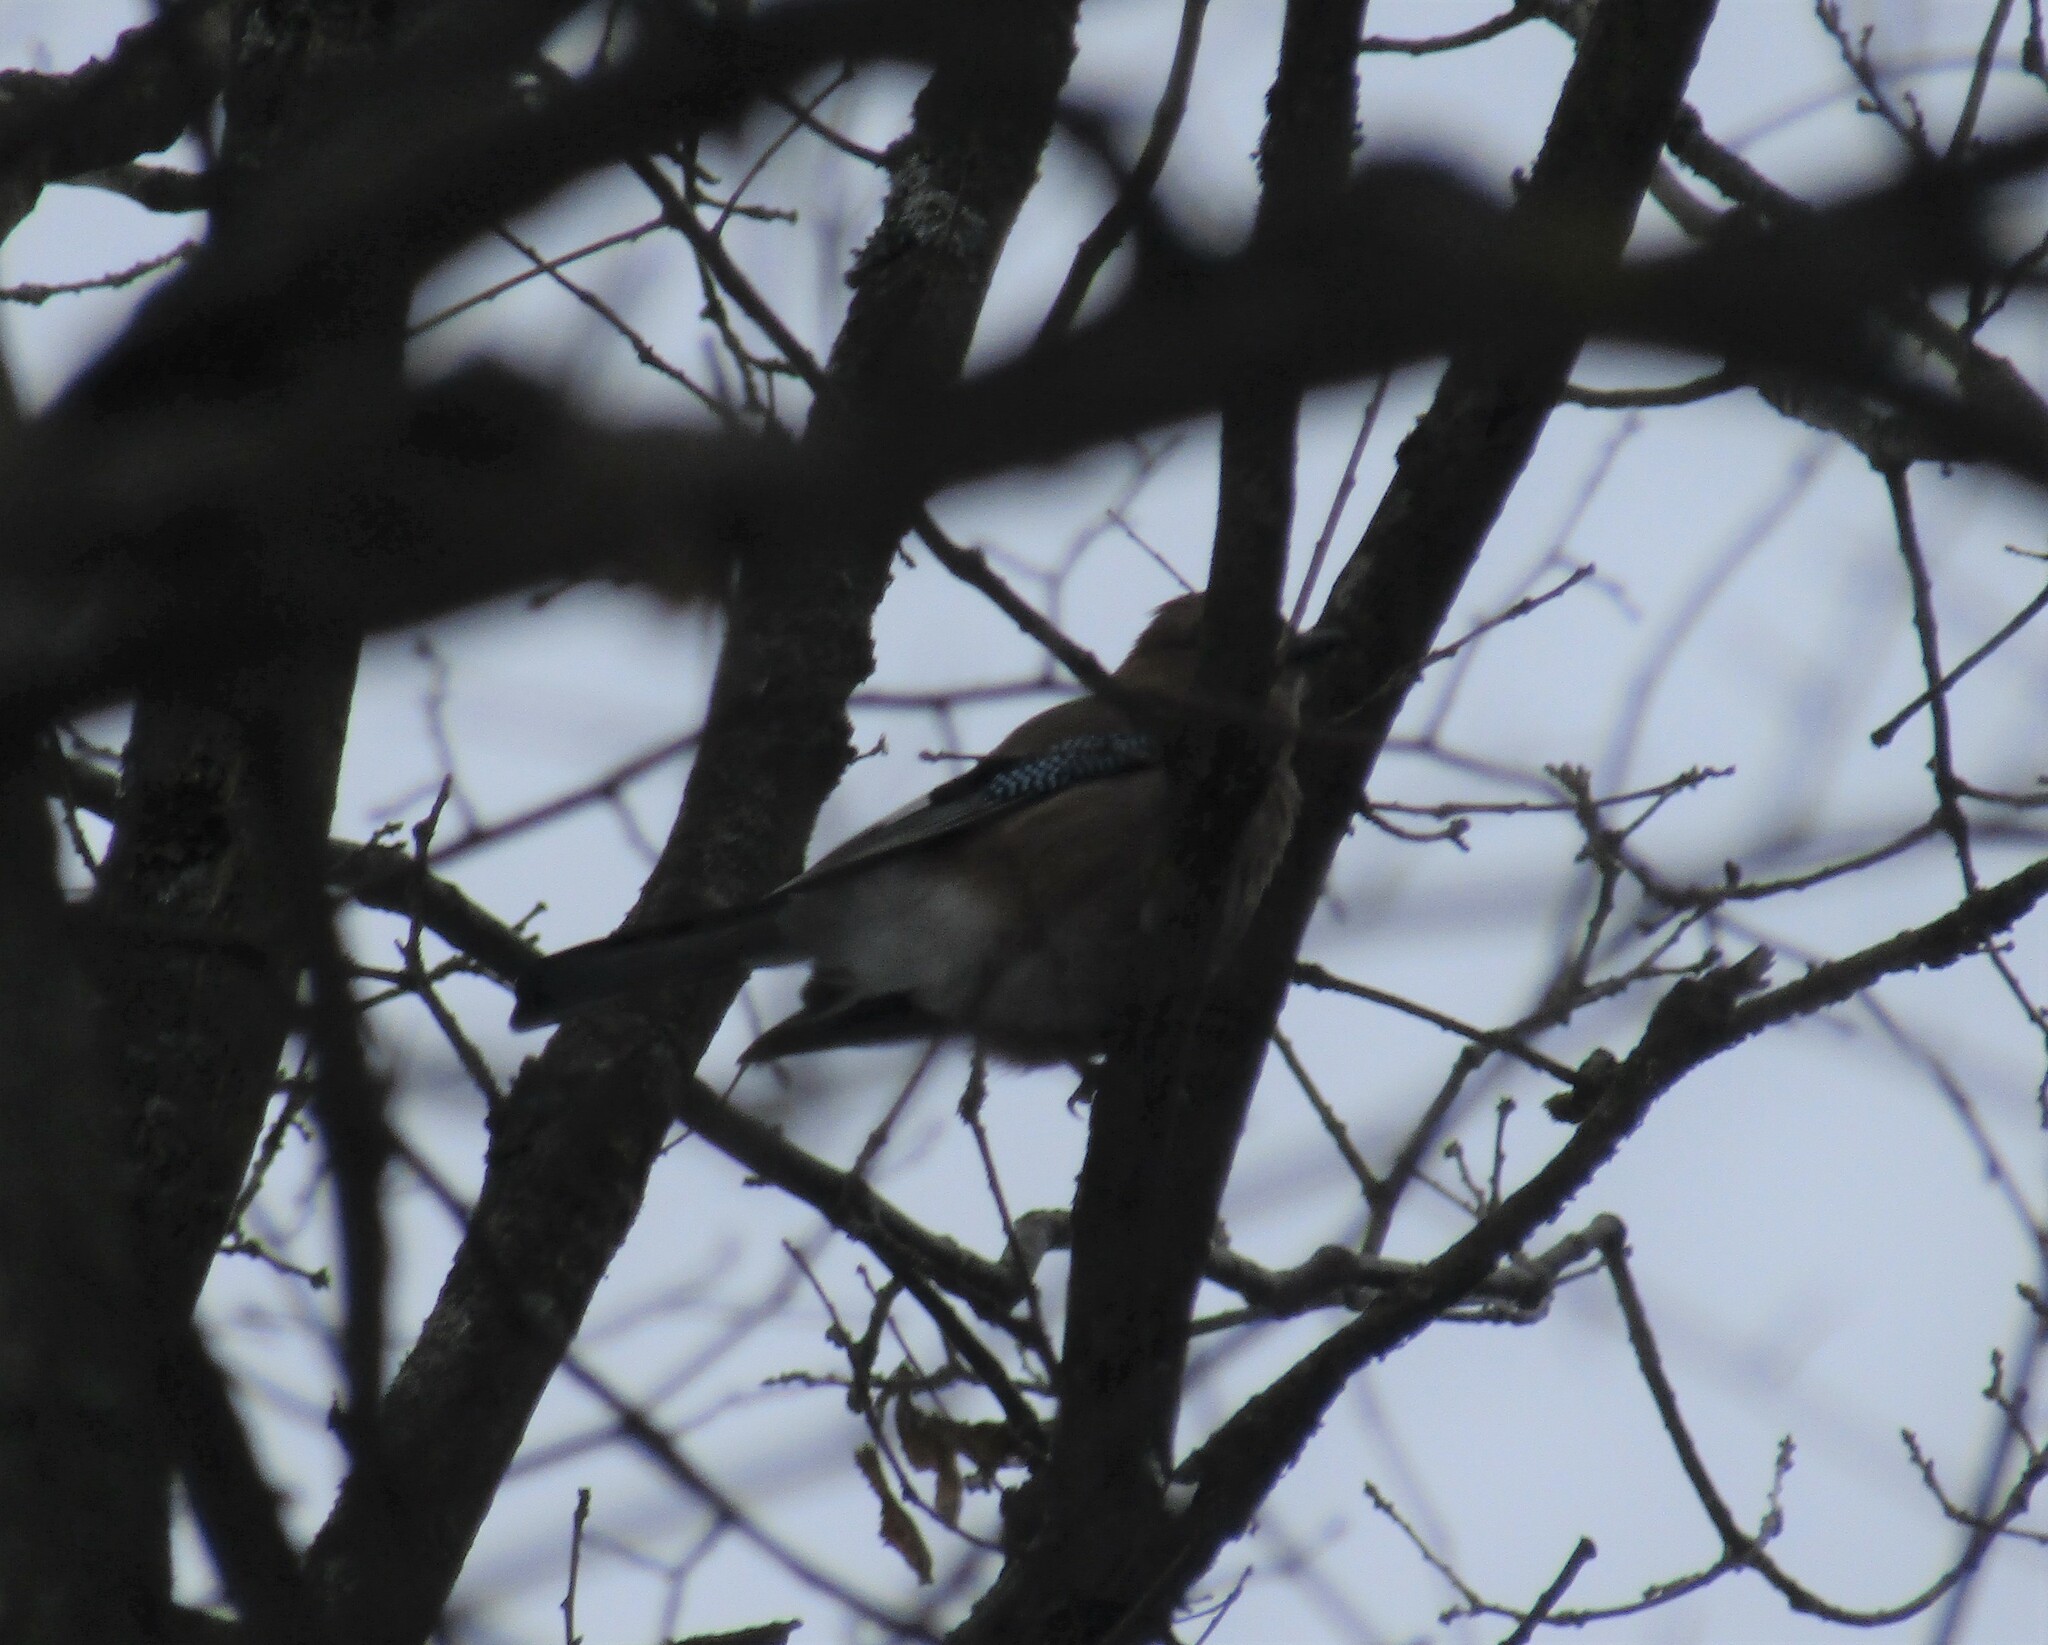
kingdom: Animalia
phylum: Chordata
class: Aves
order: Passeriformes
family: Corvidae
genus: Garrulus
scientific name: Garrulus glandarius
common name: Eurasian jay
